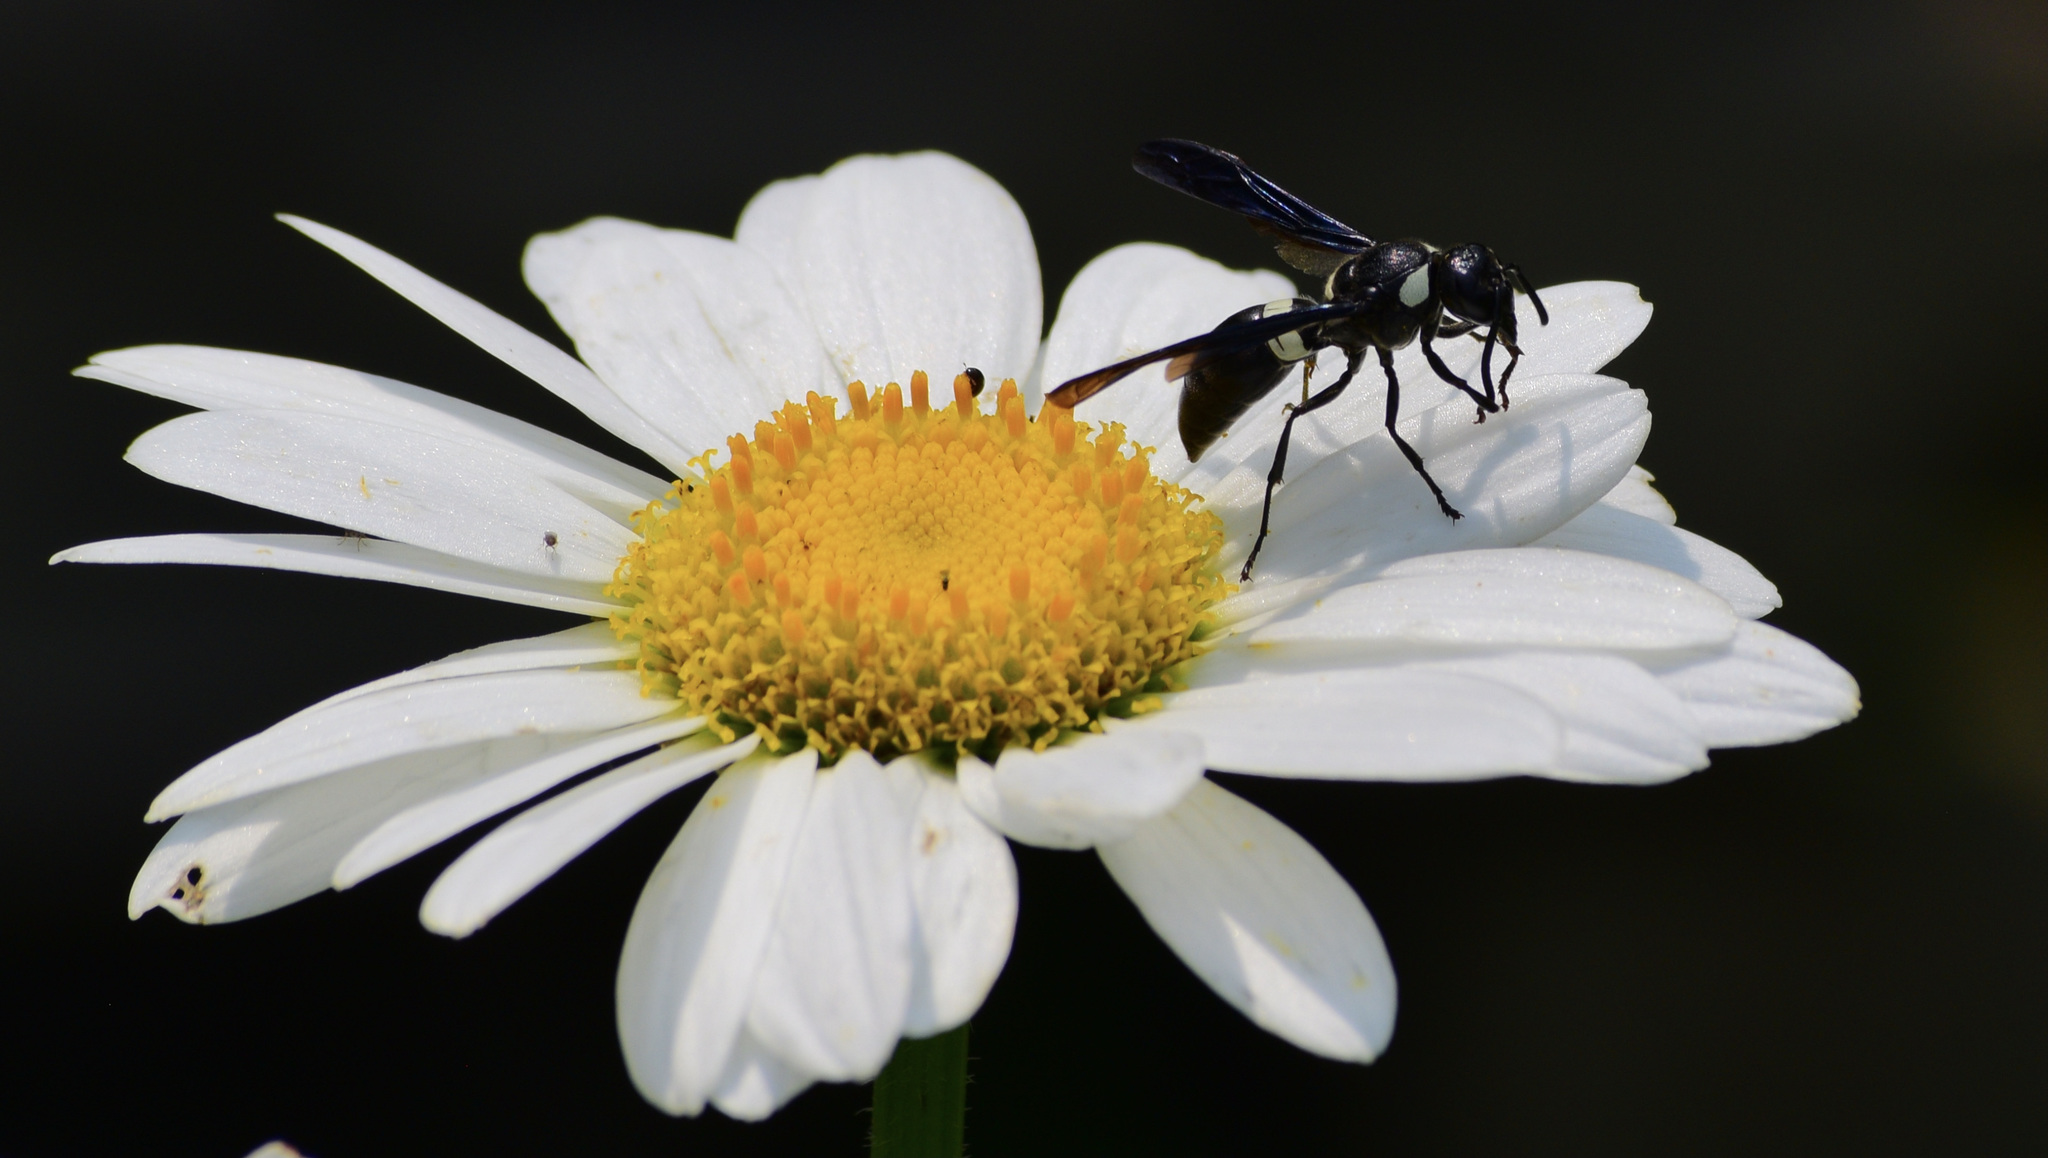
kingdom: Animalia
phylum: Arthropoda
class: Insecta
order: Hymenoptera
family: Eumenidae
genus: Monobia
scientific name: Monobia quadridens
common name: Four-toothed mason wasp
